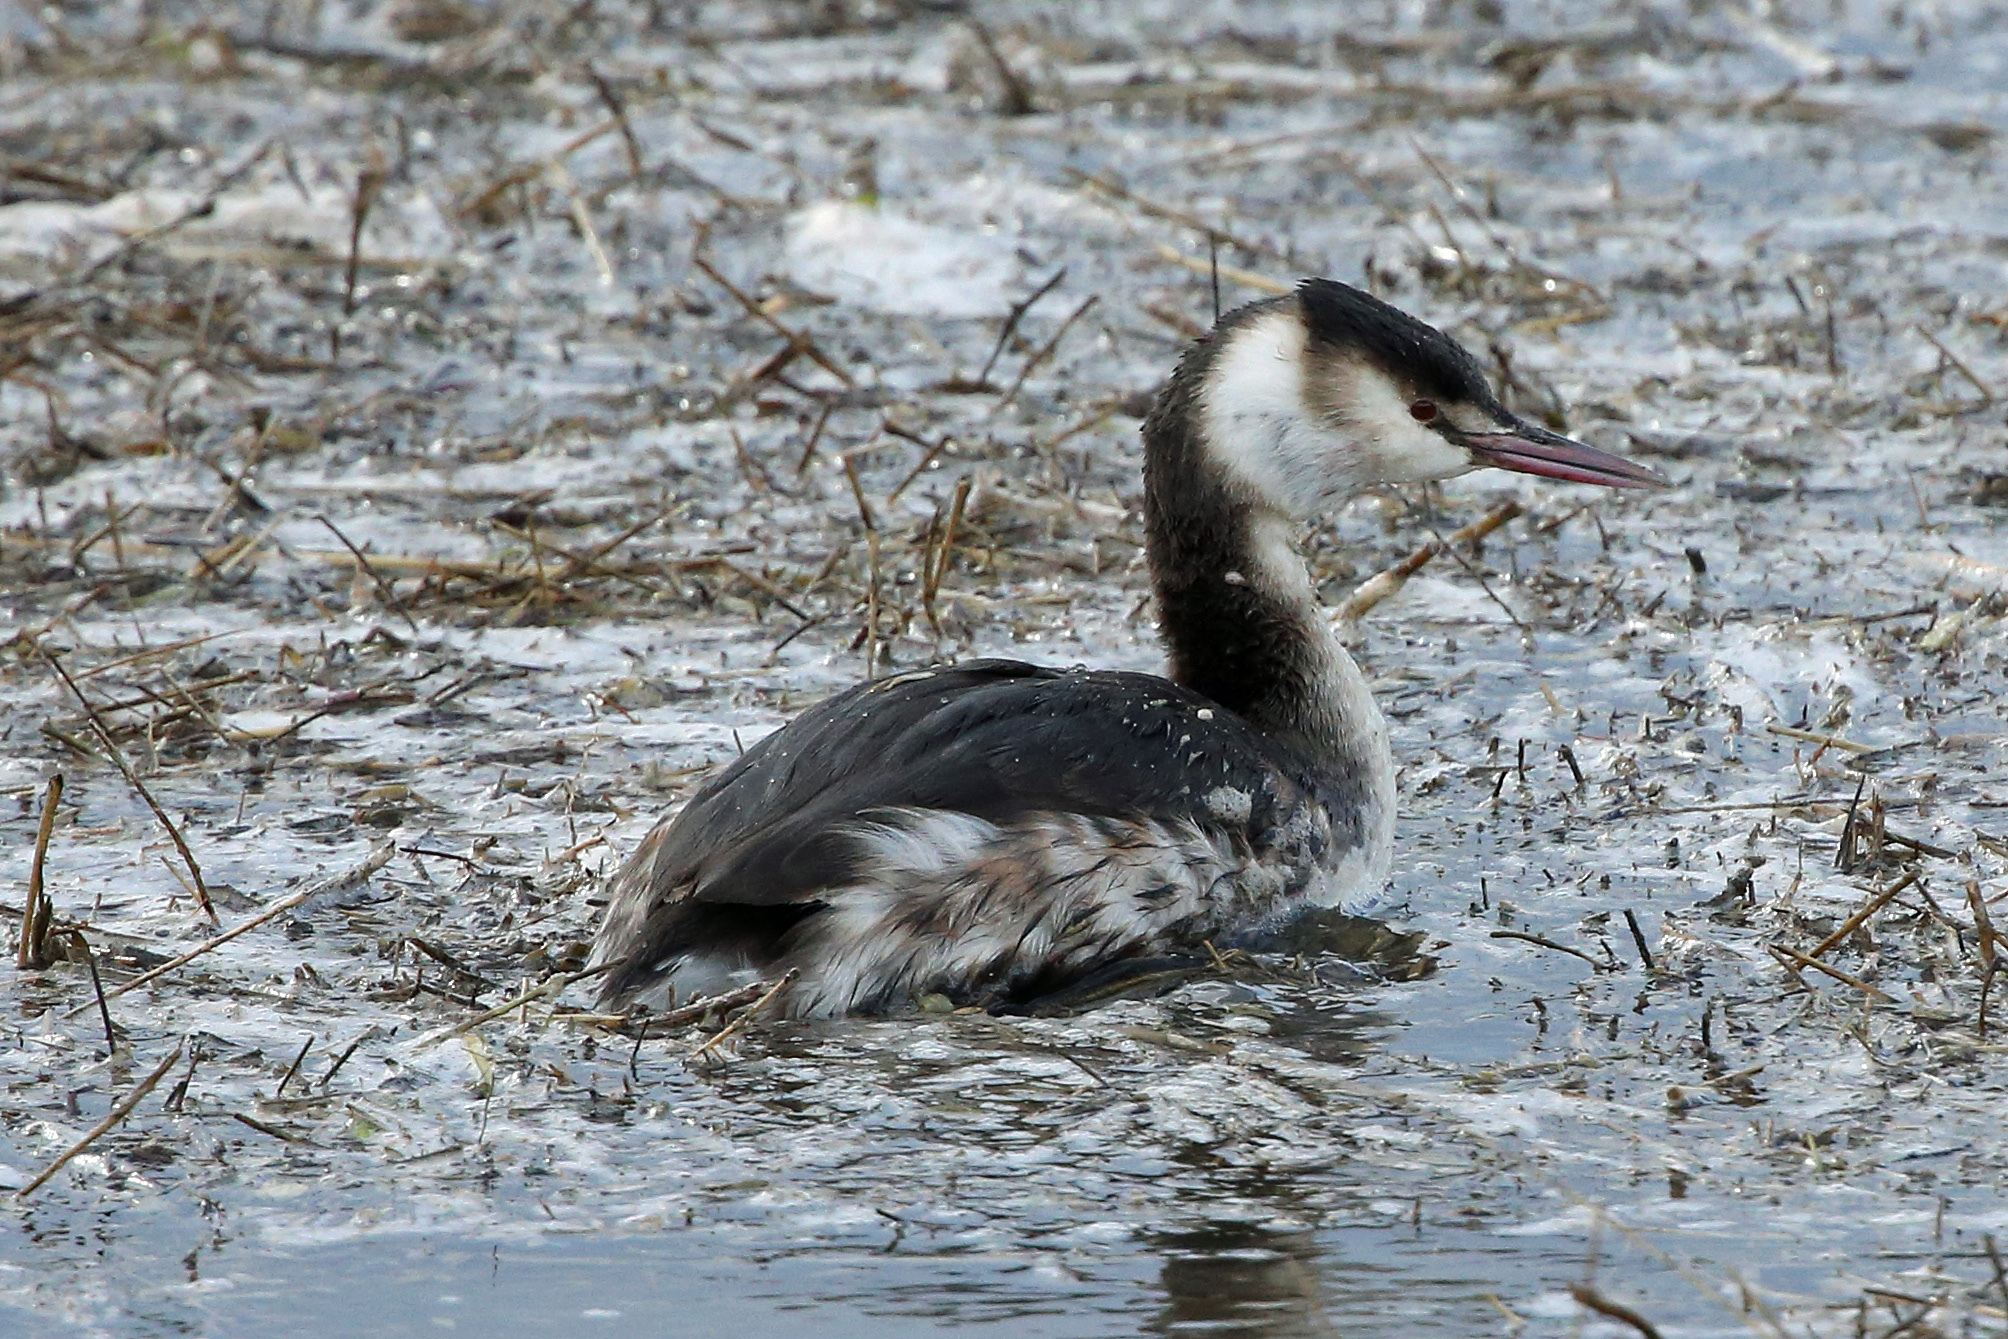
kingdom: Animalia
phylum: Chordata
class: Aves
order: Podicipediformes
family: Podicipedidae
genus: Podiceps
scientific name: Podiceps cristatus
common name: Great crested grebe
